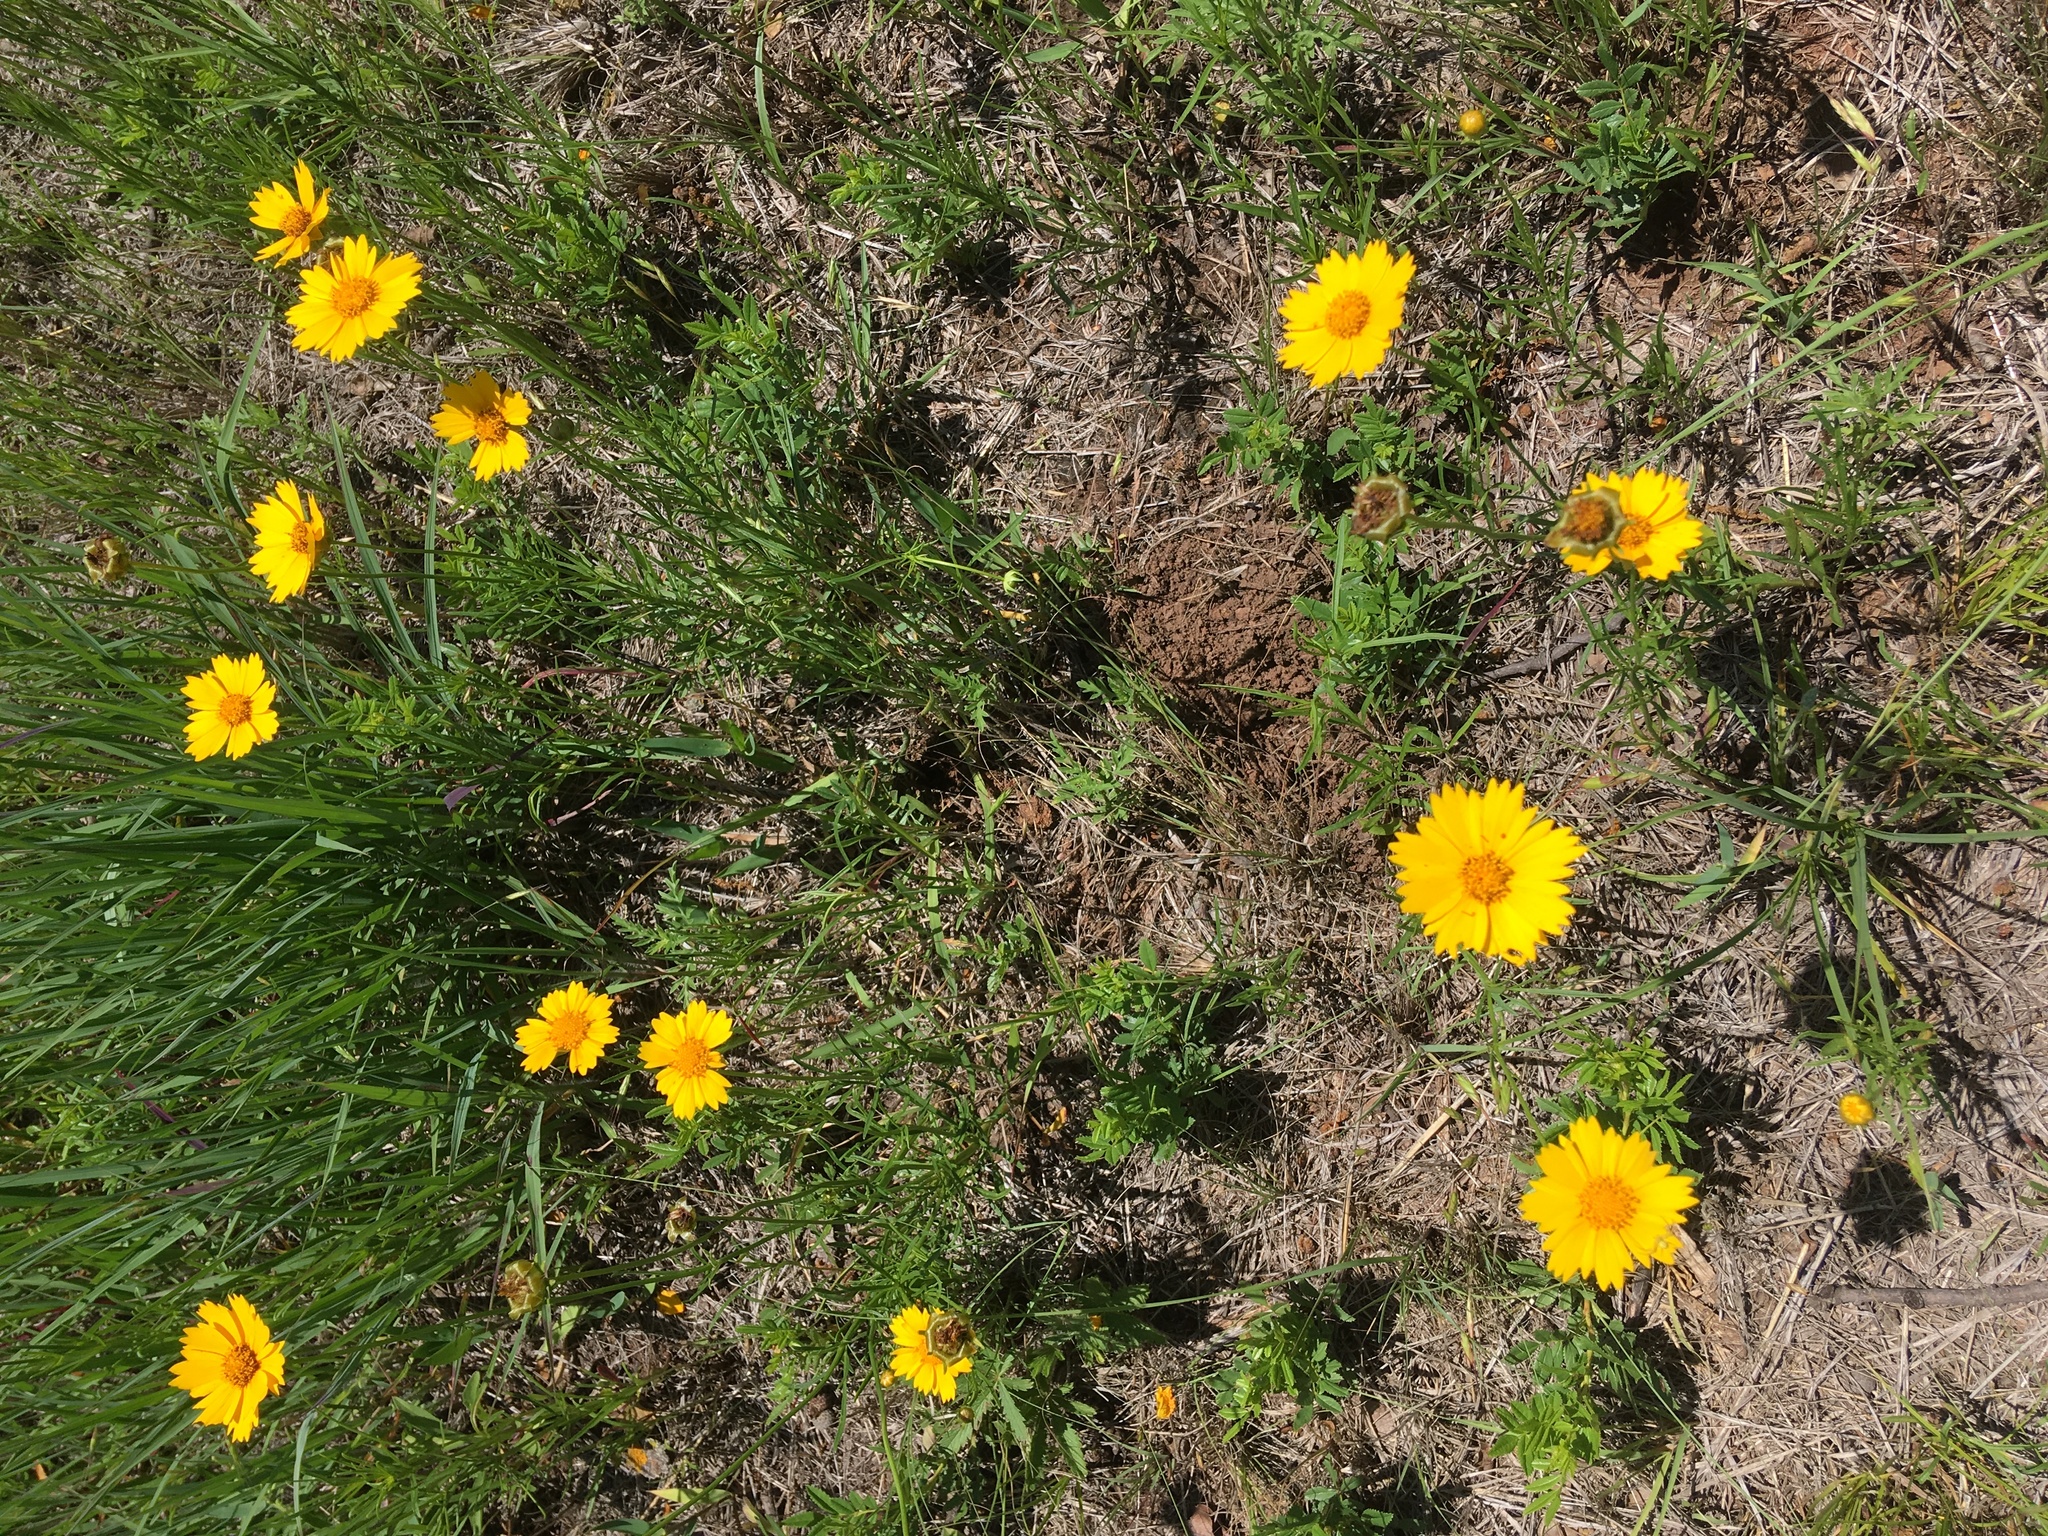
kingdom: Plantae
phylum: Tracheophyta
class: Magnoliopsida
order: Asterales
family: Asteraceae
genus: Coreopsis
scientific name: Coreopsis grandiflora
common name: Large-flowered tickseed
